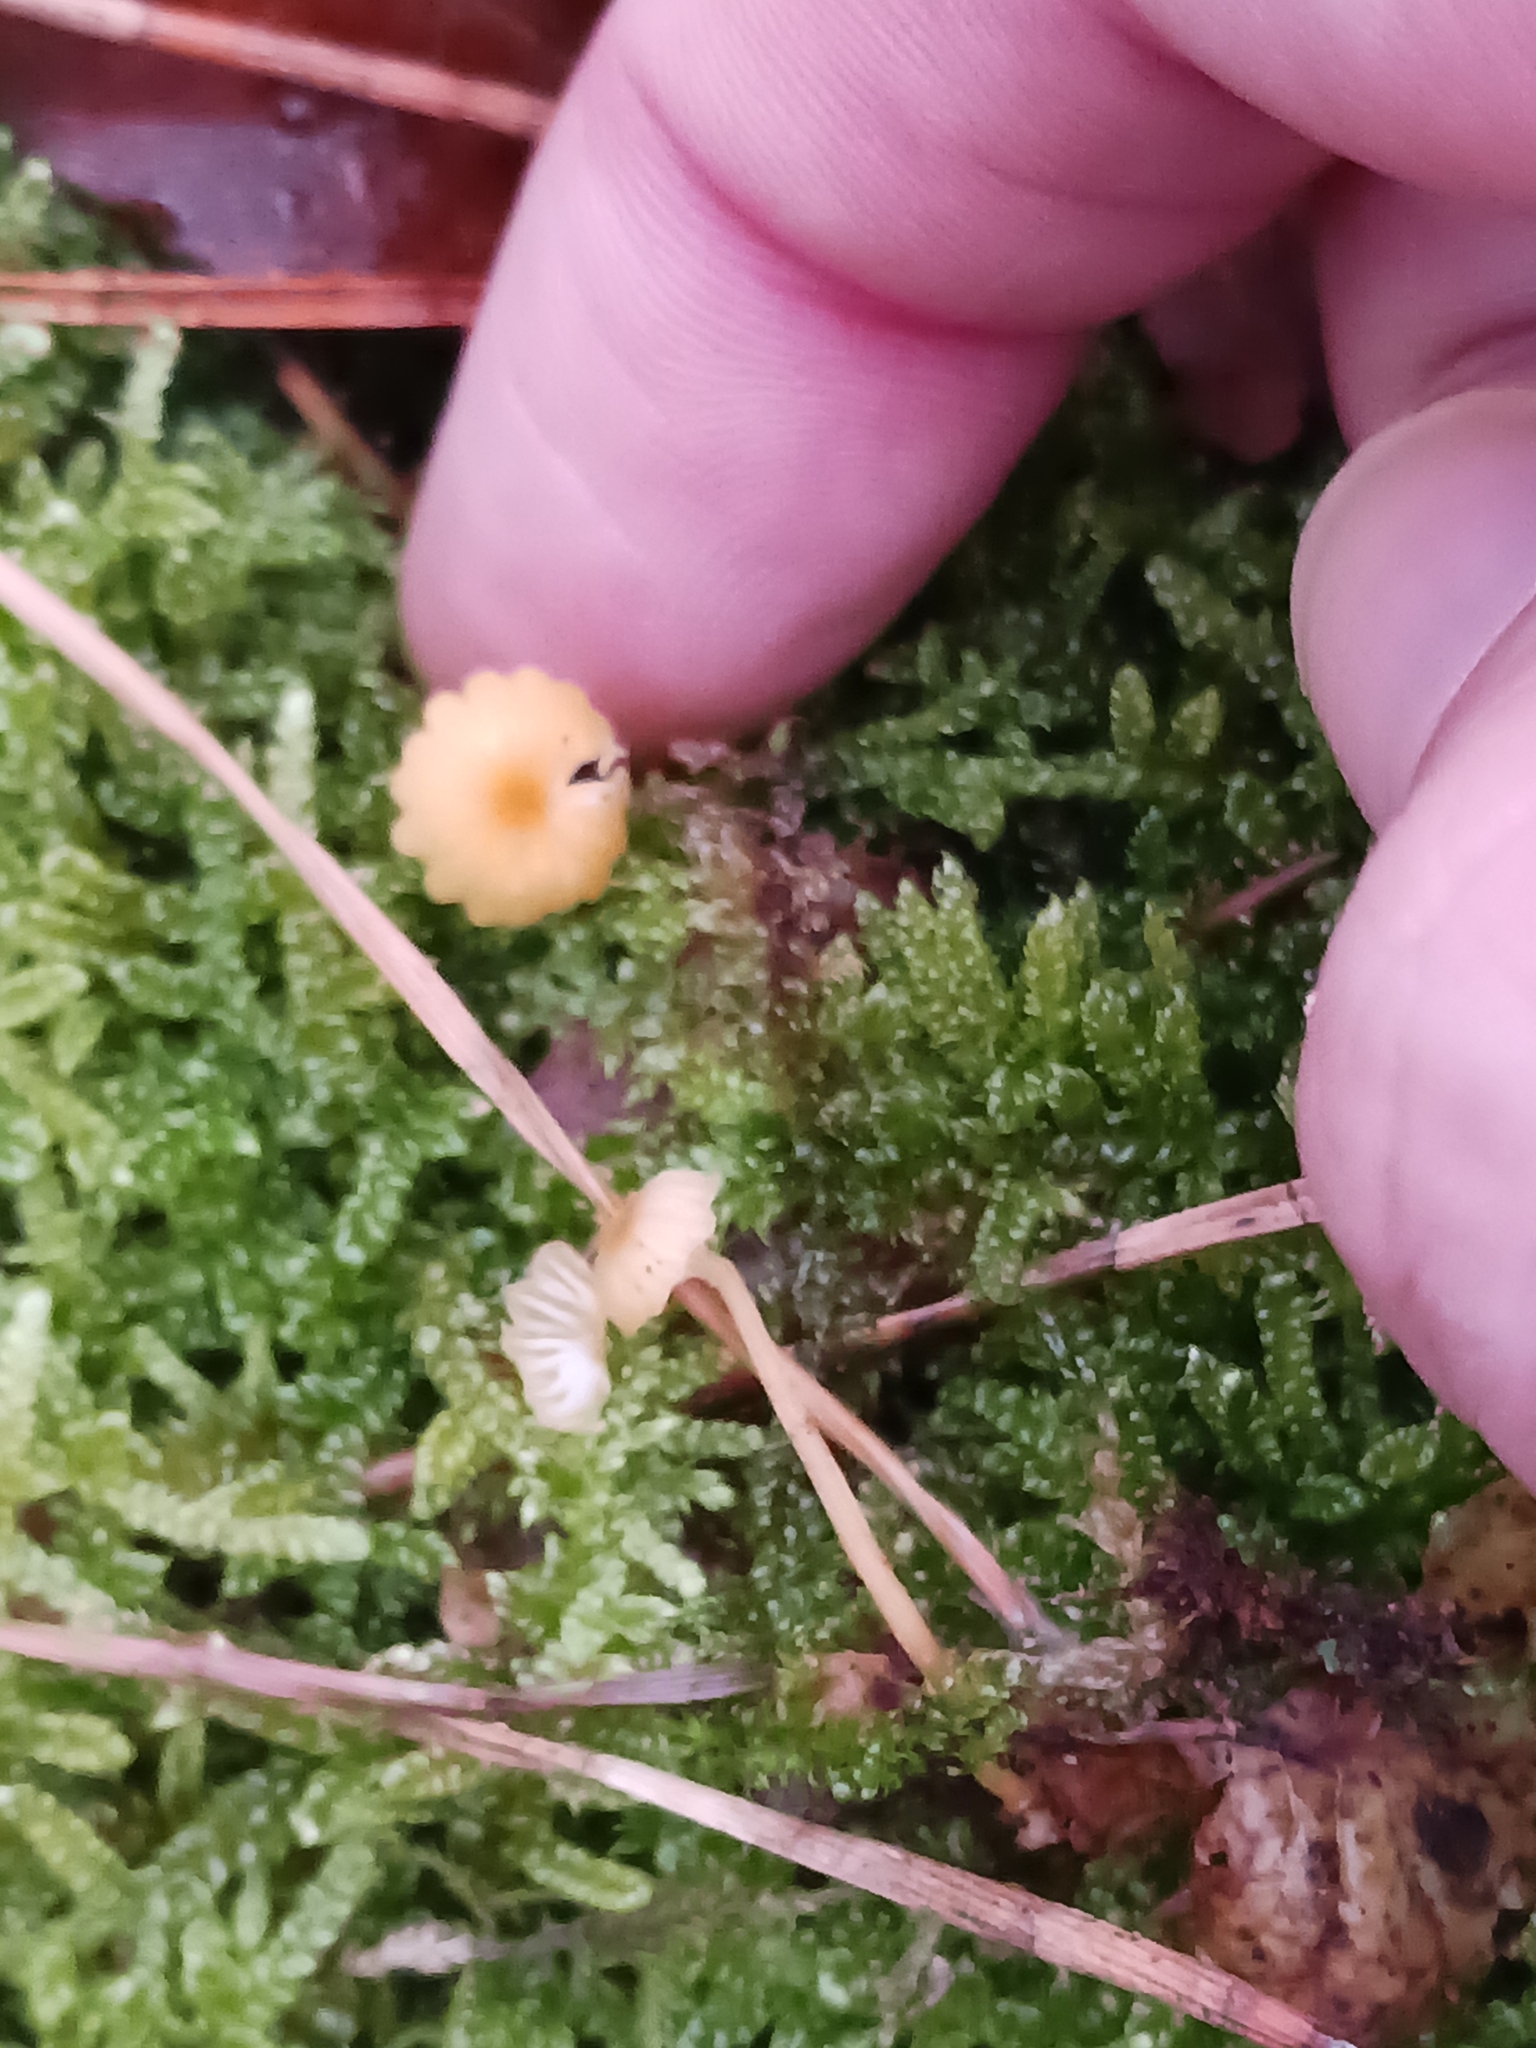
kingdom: Fungi
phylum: Basidiomycota
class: Agaricomycetes
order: Hymenochaetales
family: Rickenellaceae
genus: Rickenella
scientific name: Rickenella fibula
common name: Orange mosscap
